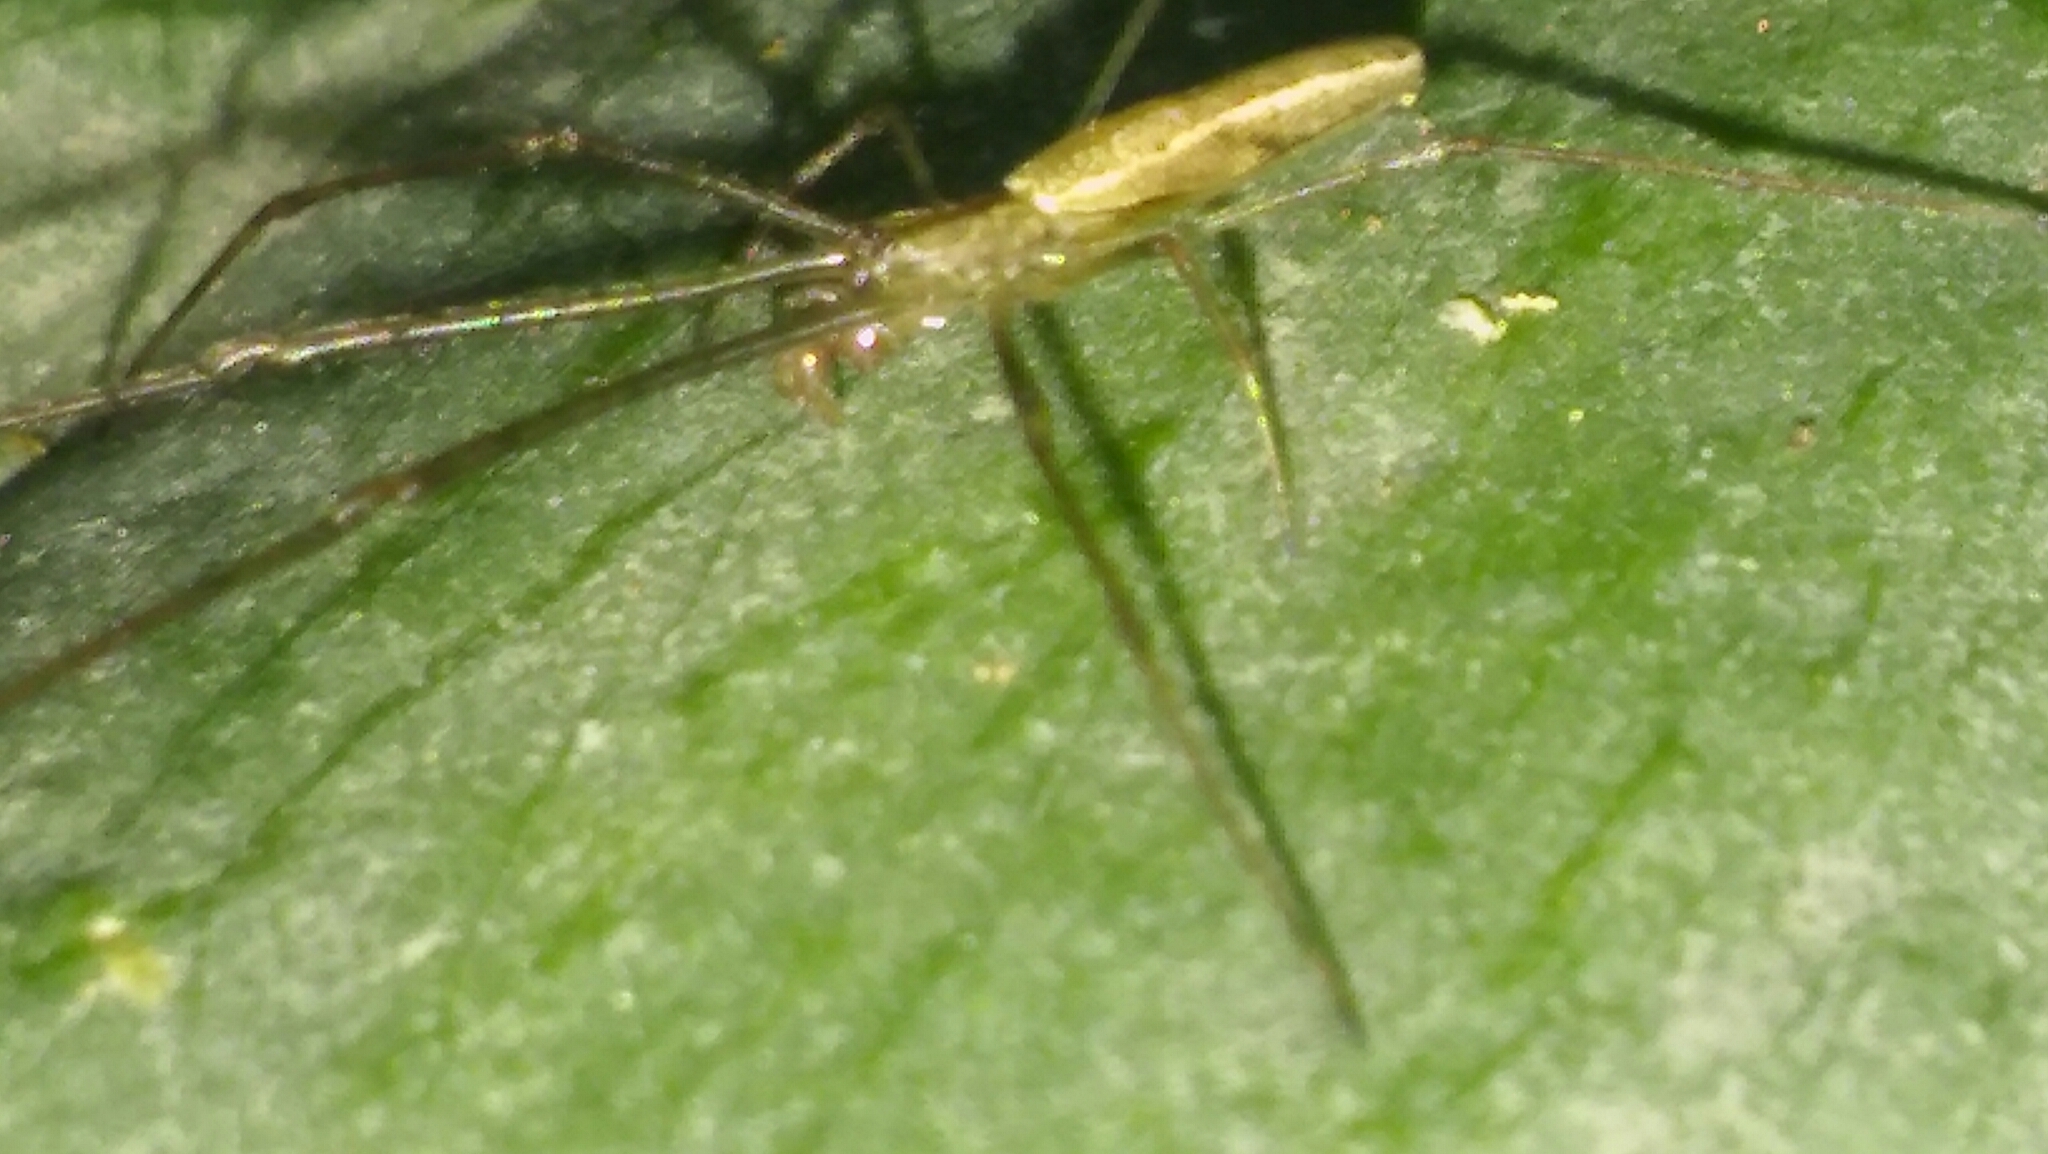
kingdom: Animalia
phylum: Arthropoda
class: Arachnida
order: Araneae
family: Tetragnathidae
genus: Tetragnatha
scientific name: Tetragnatha
